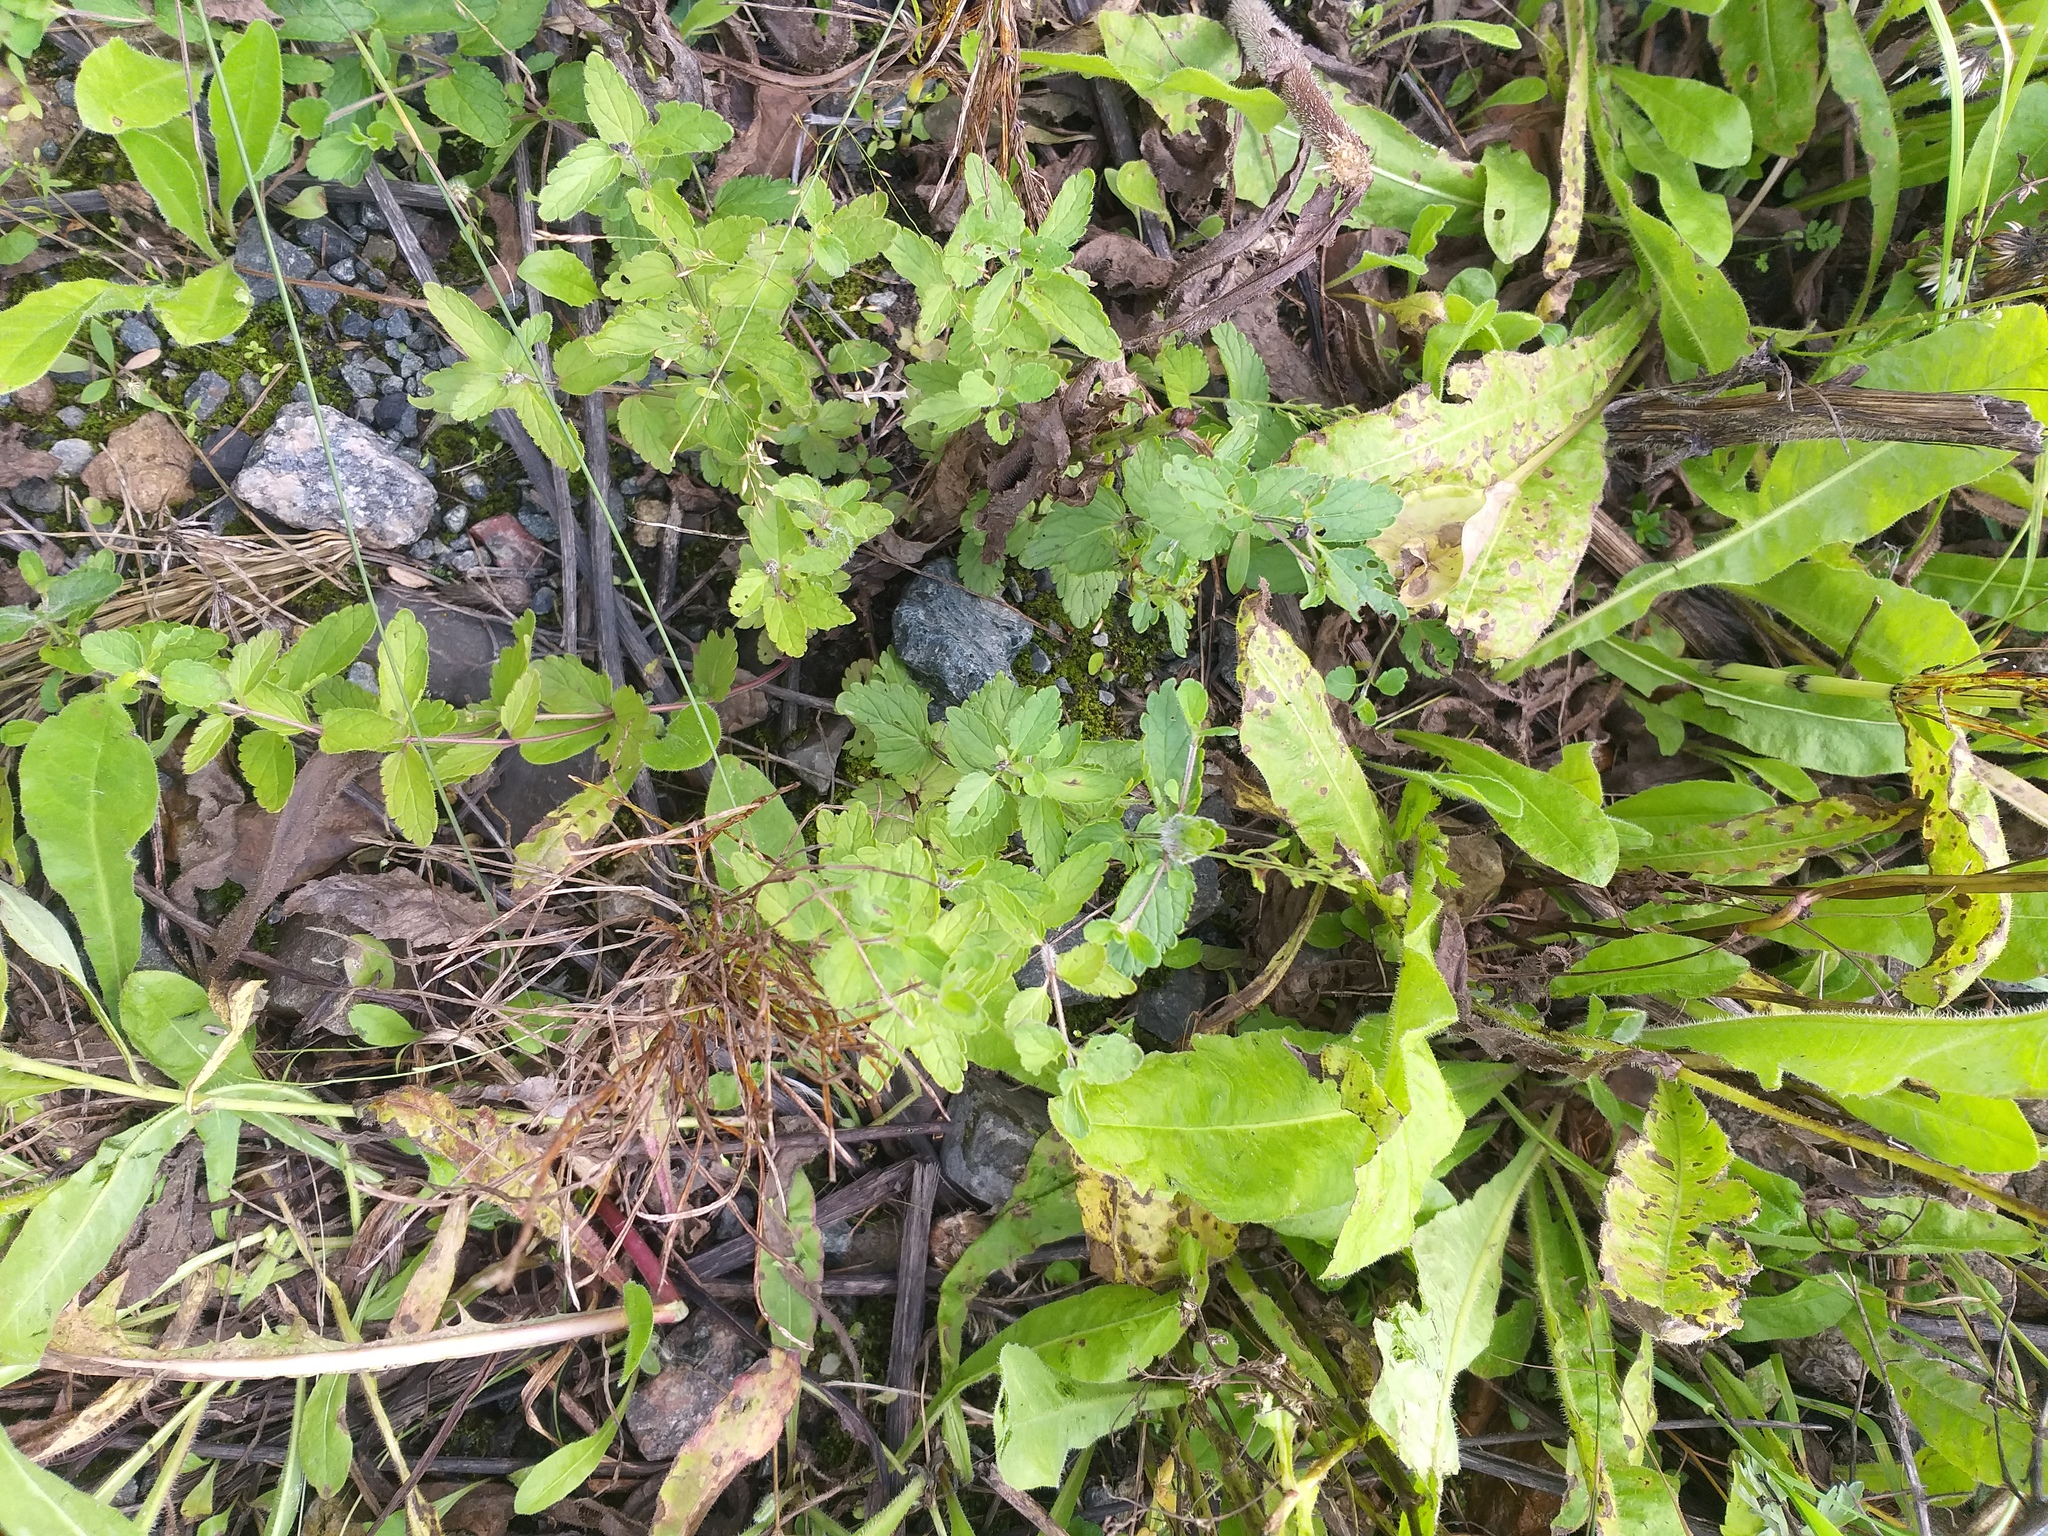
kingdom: Plantae
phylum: Tracheophyta
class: Magnoliopsida
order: Lamiales
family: Plantaginaceae
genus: Veronica
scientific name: Veronica chamaedrys
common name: Germander speedwell
